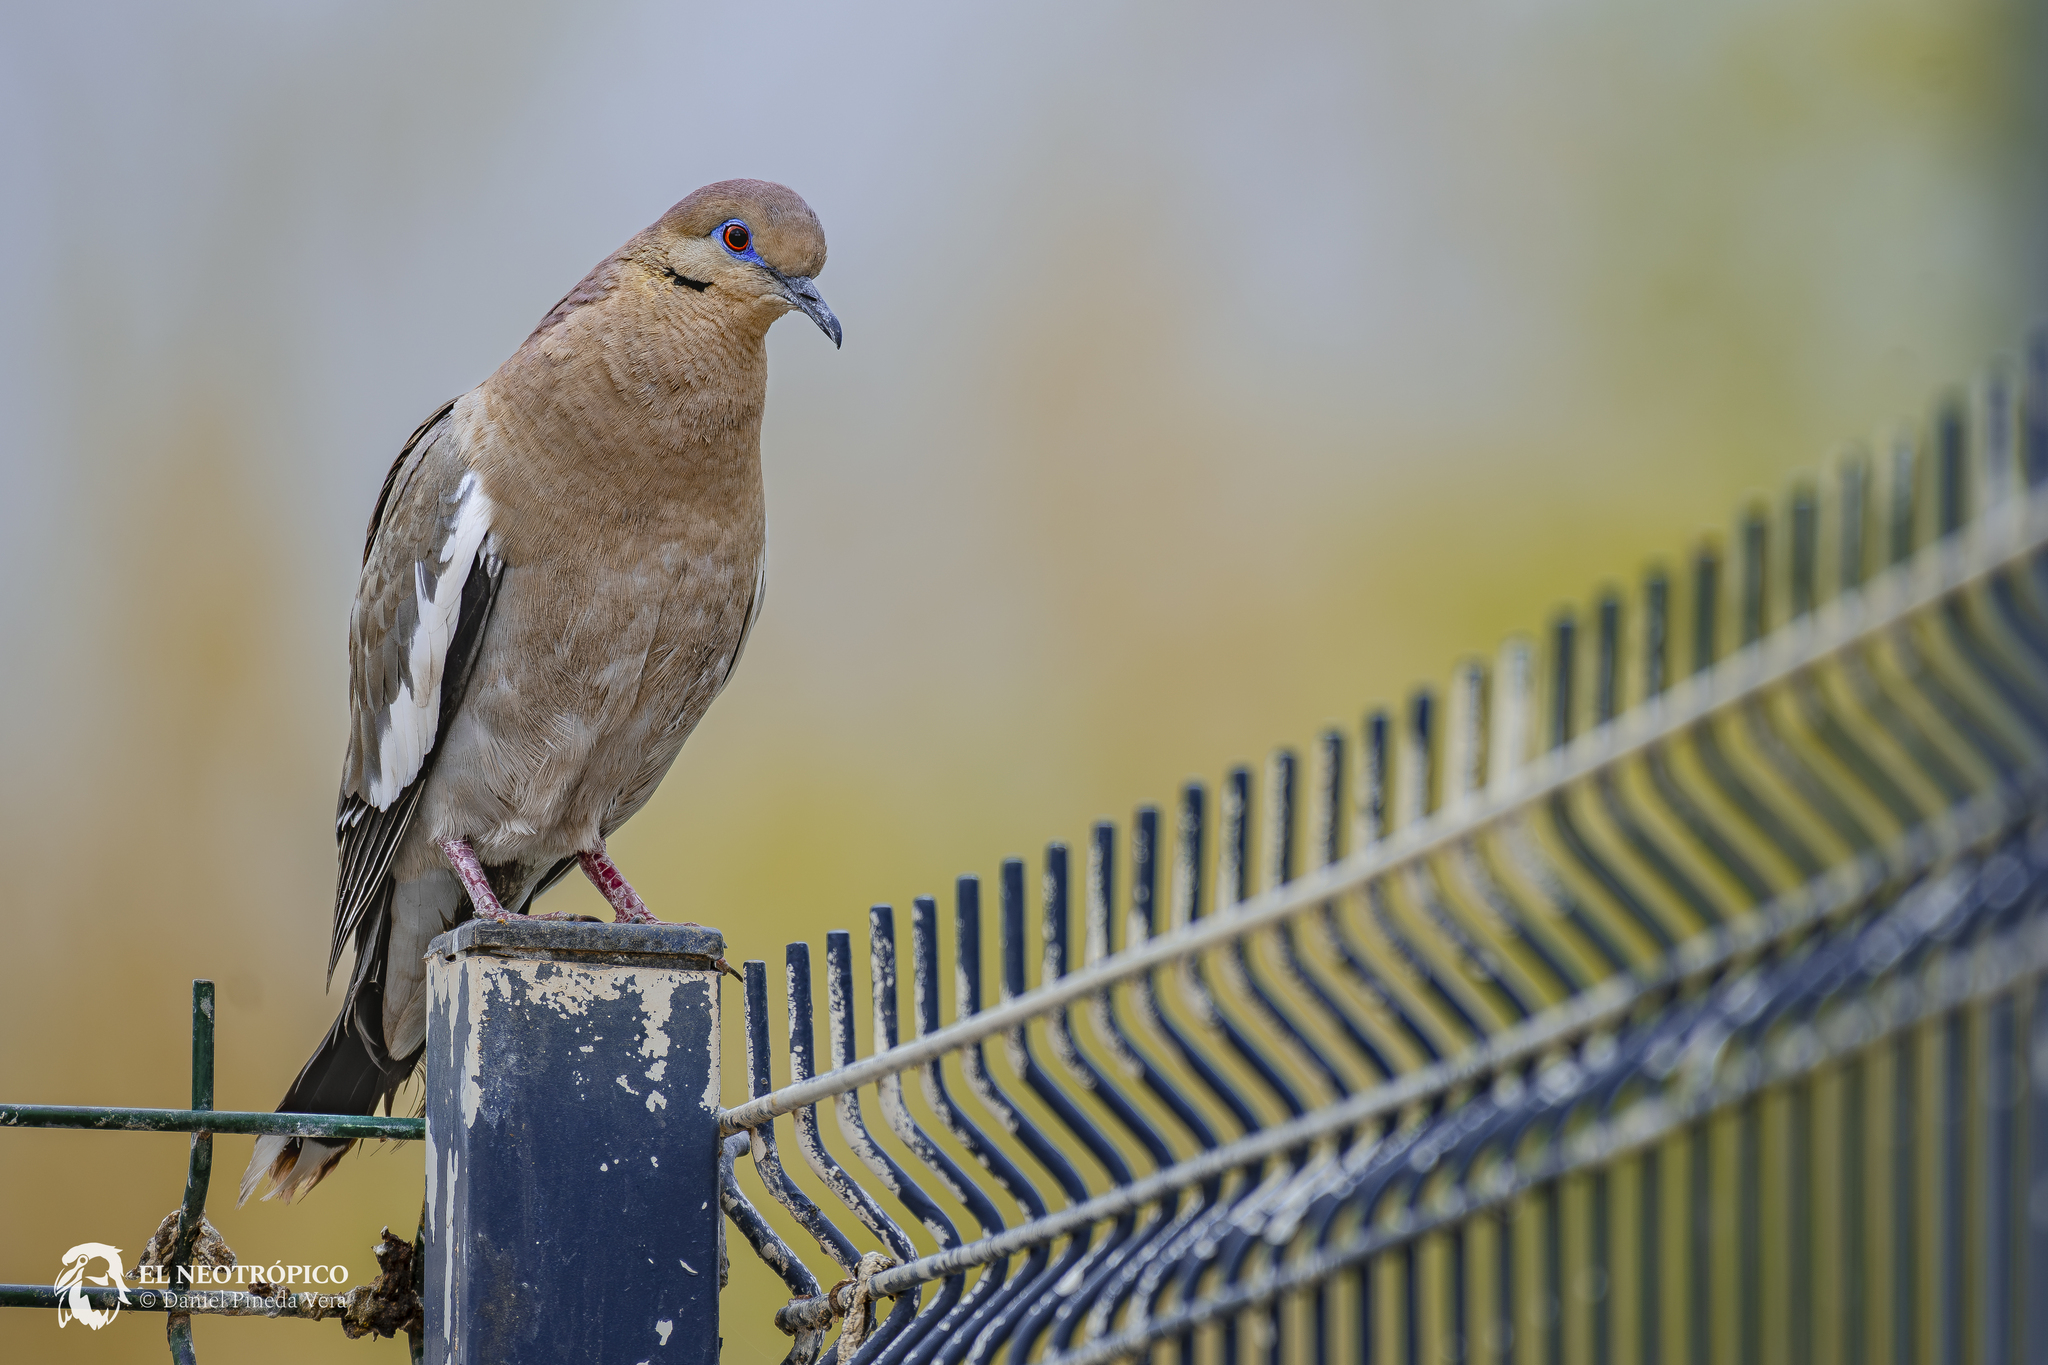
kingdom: Animalia
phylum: Chordata
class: Aves
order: Columbiformes
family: Columbidae
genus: Zenaida
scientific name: Zenaida asiatica
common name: White-winged dove
